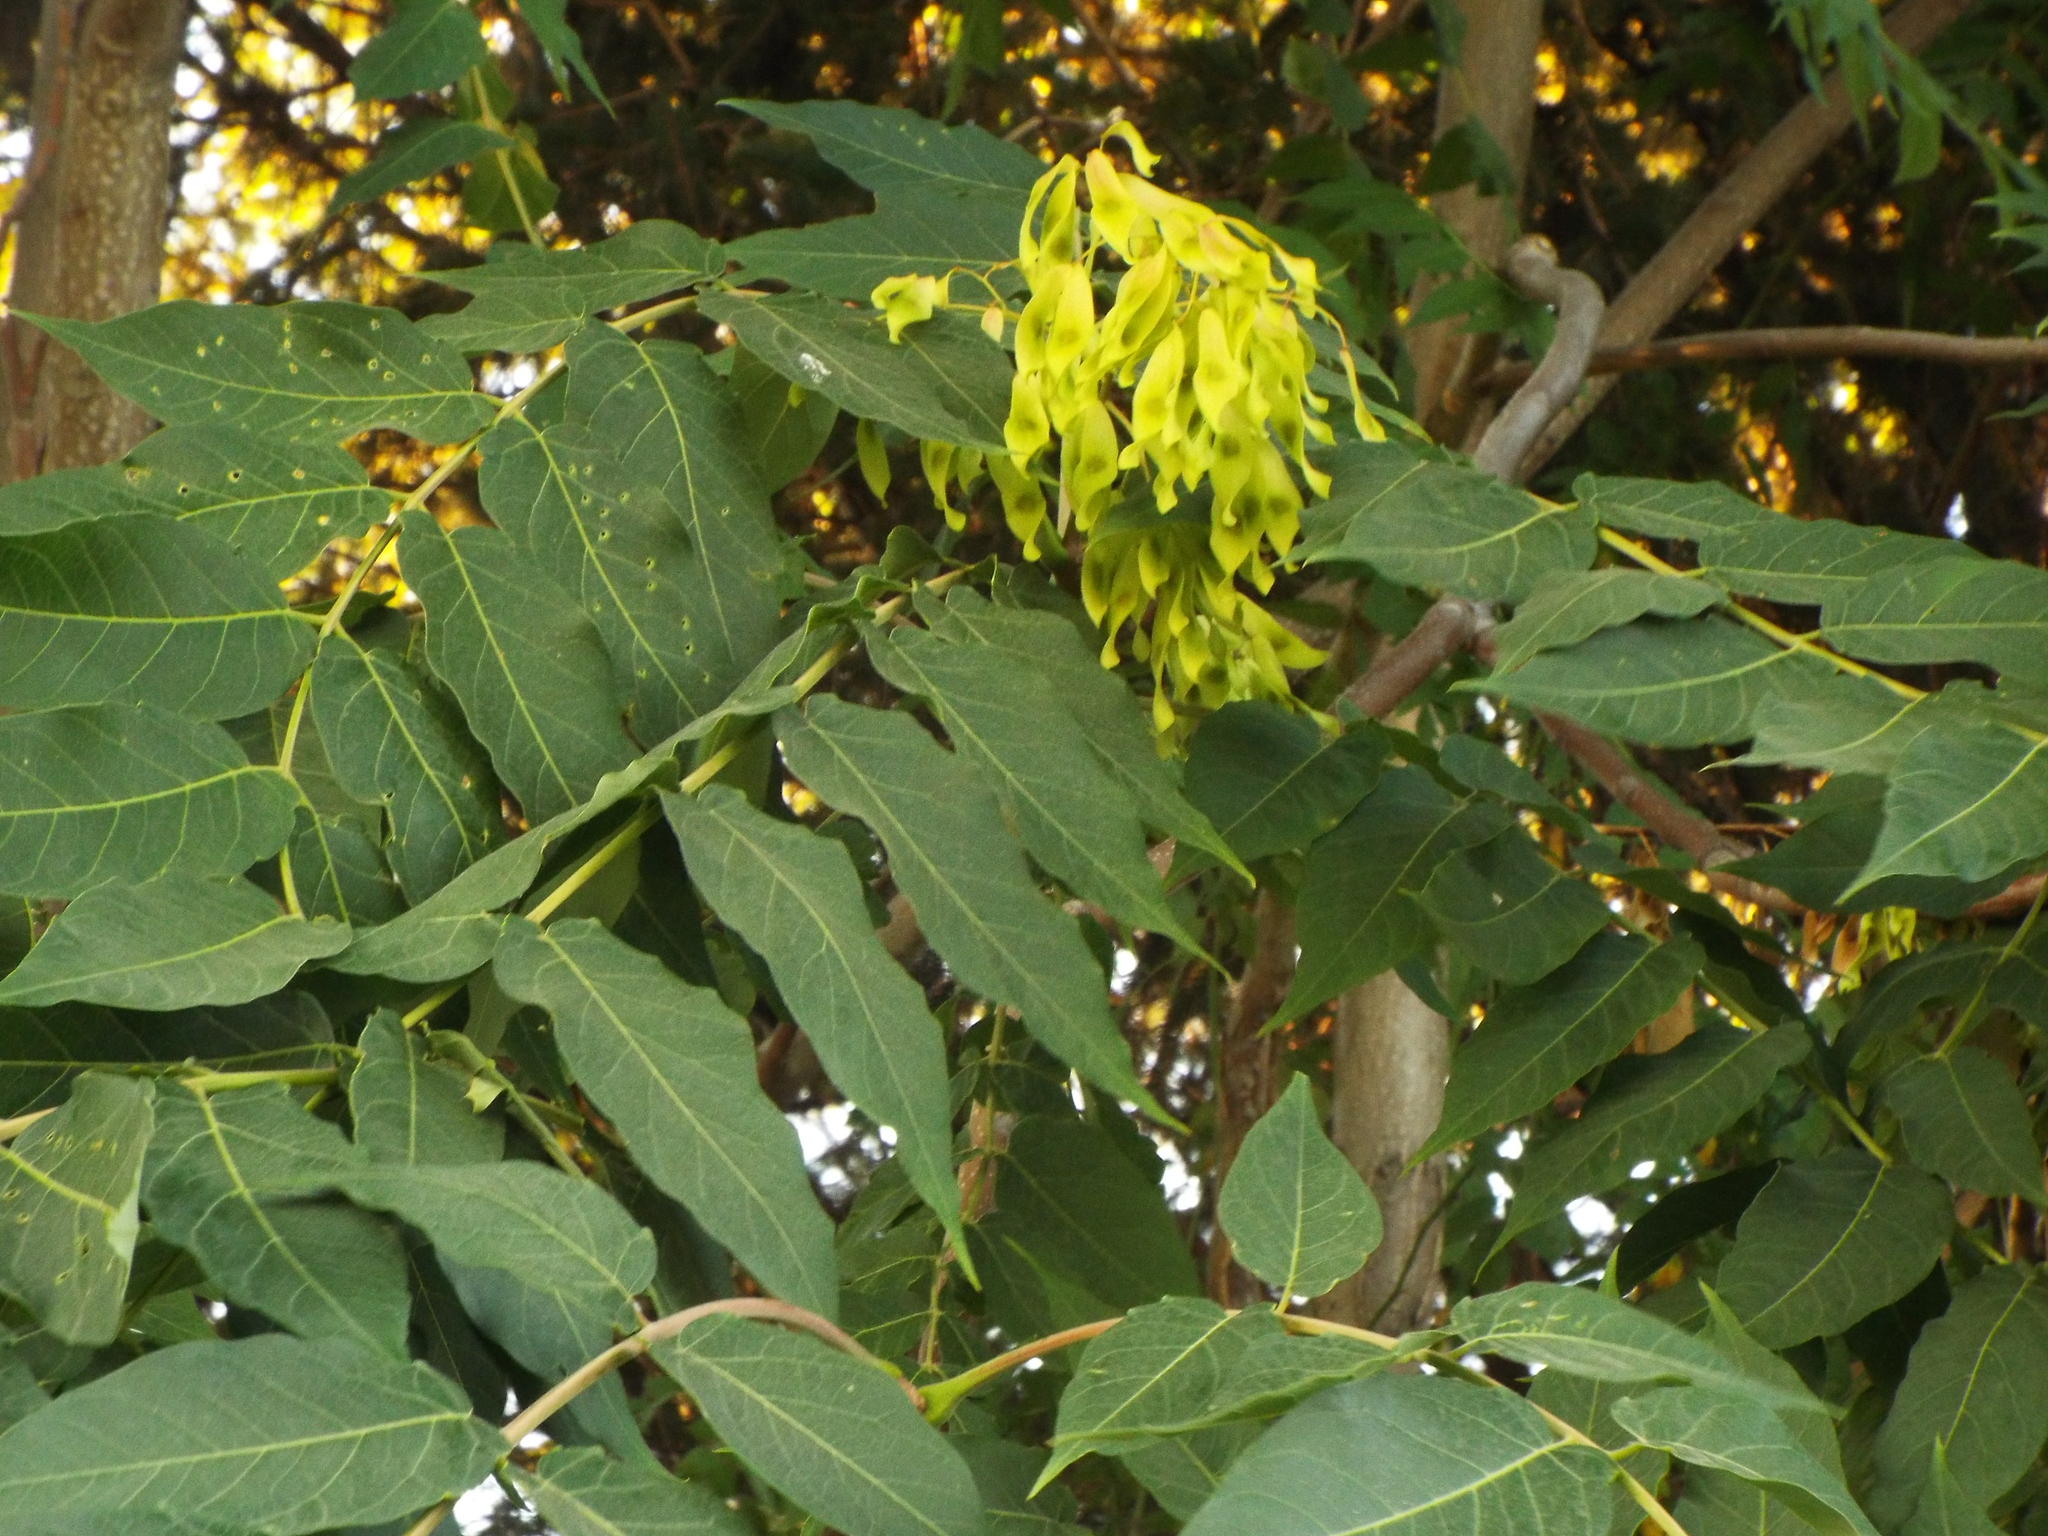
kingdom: Plantae
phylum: Tracheophyta
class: Magnoliopsida
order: Sapindales
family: Simaroubaceae
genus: Ailanthus
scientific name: Ailanthus altissima
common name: Tree-of-heaven
